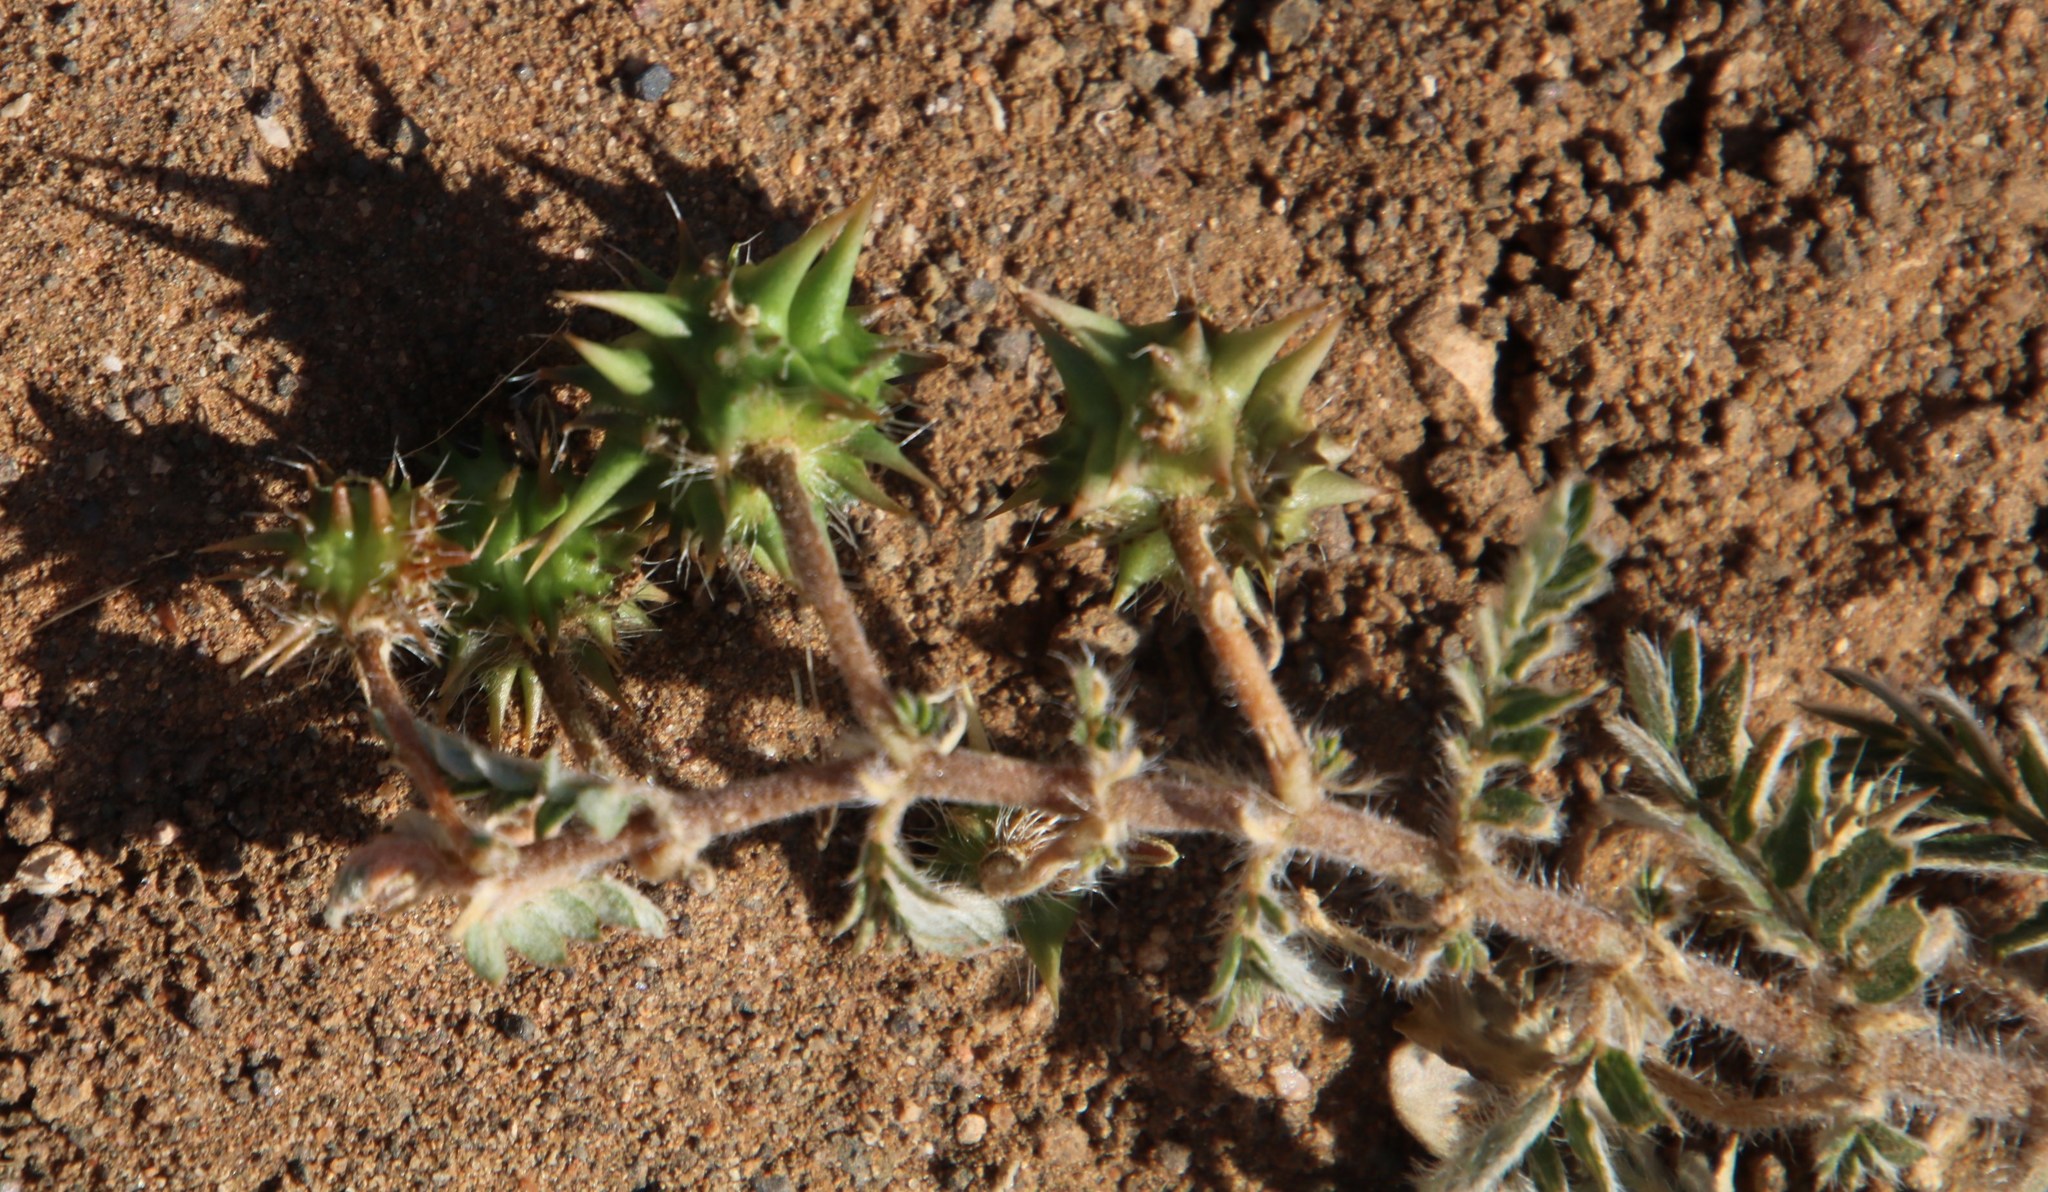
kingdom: Plantae
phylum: Tracheophyta
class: Magnoliopsida
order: Zygophyllales
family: Zygophyllaceae
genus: Tribulus
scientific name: Tribulus zeyheri
